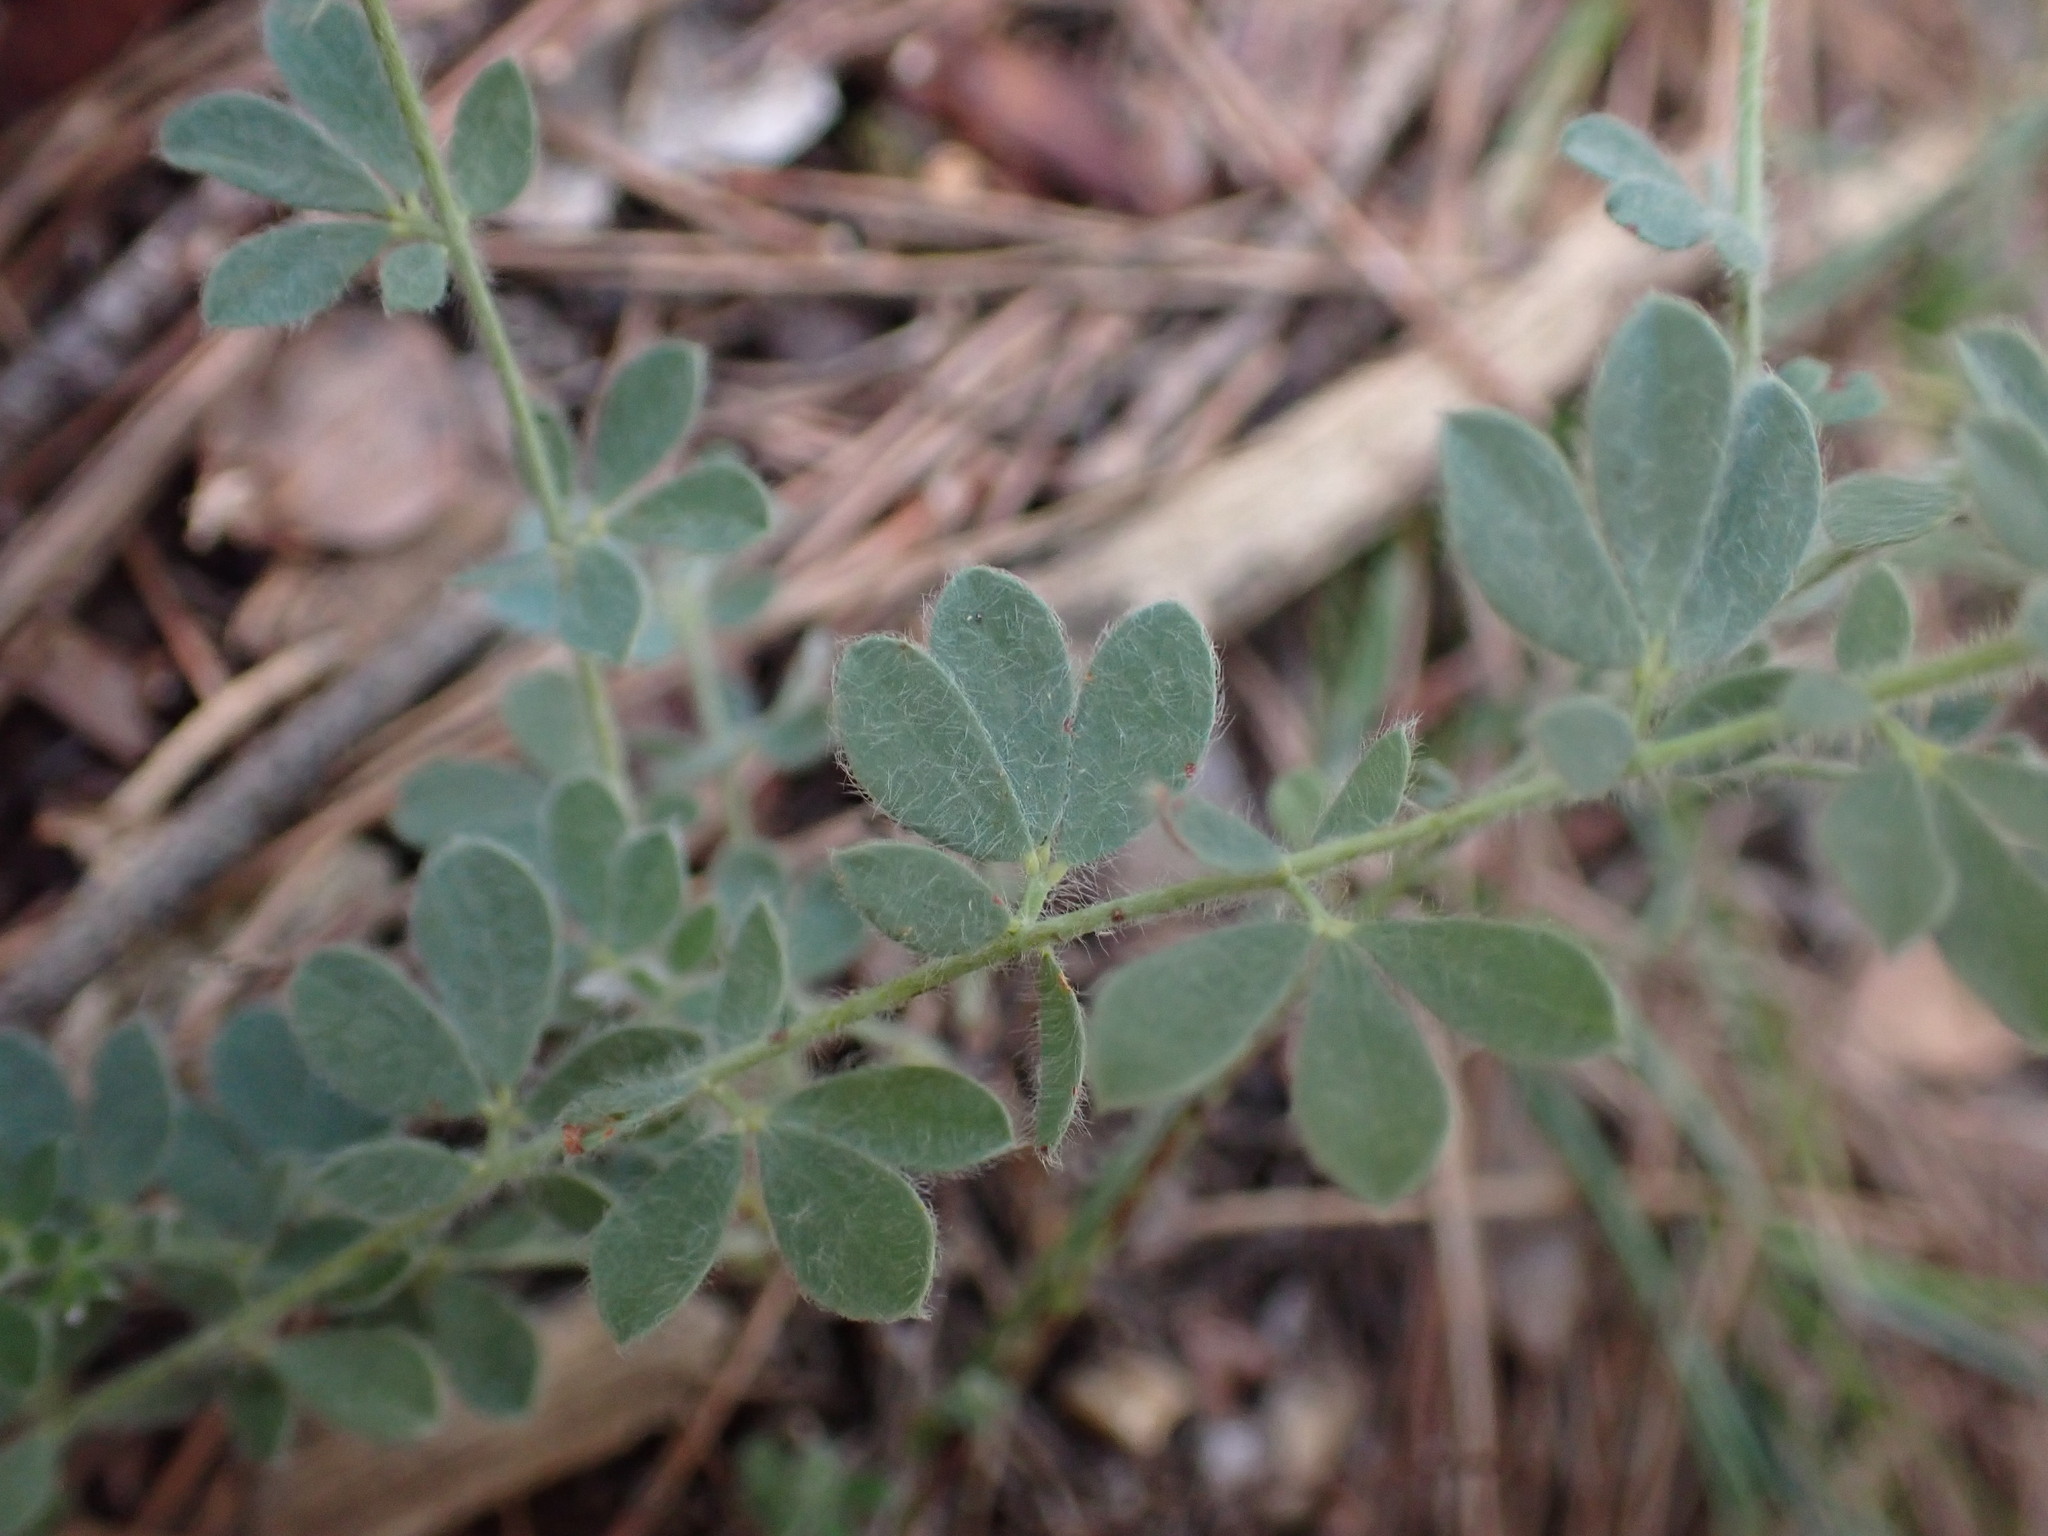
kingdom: Plantae
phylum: Tracheophyta
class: Magnoliopsida
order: Fabales
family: Fabaceae
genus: Lotus
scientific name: Lotus hirsutus
